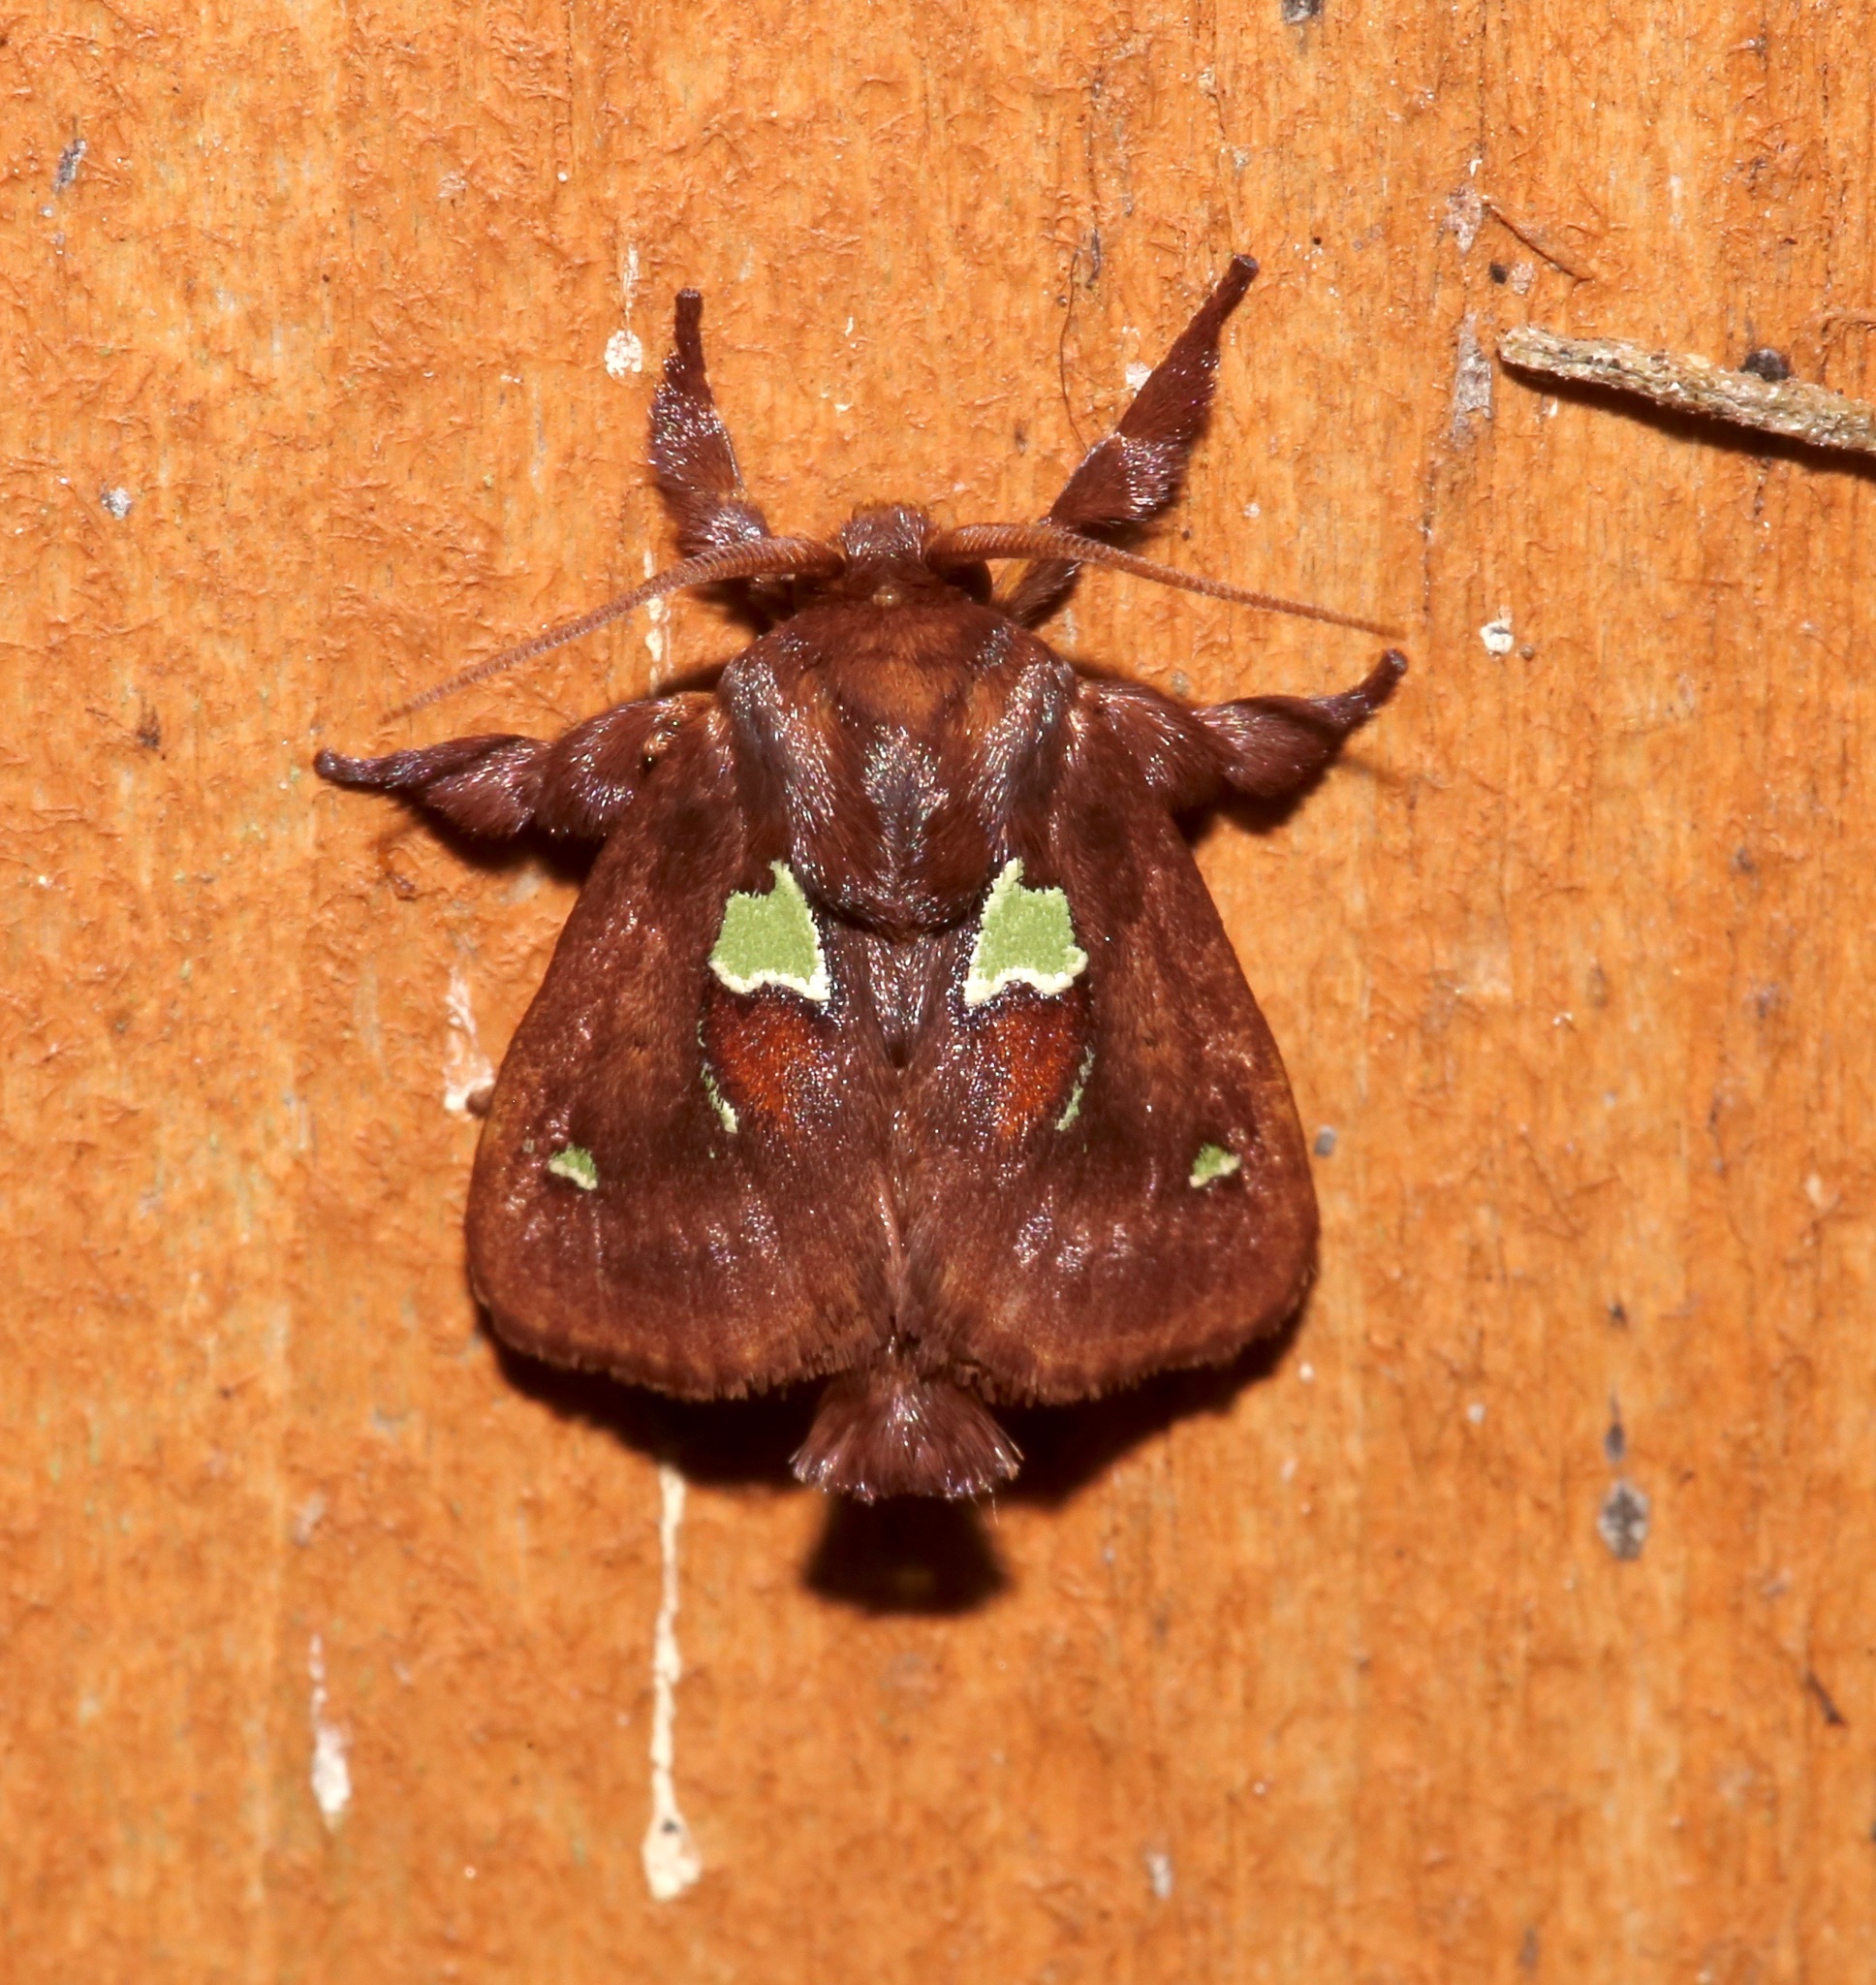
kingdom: Animalia
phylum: Arthropoda
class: Insecta
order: Lepidoptera
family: Limacodidae
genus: Euclea
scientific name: Euclea delphinii
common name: Spiny oak-slug moth
